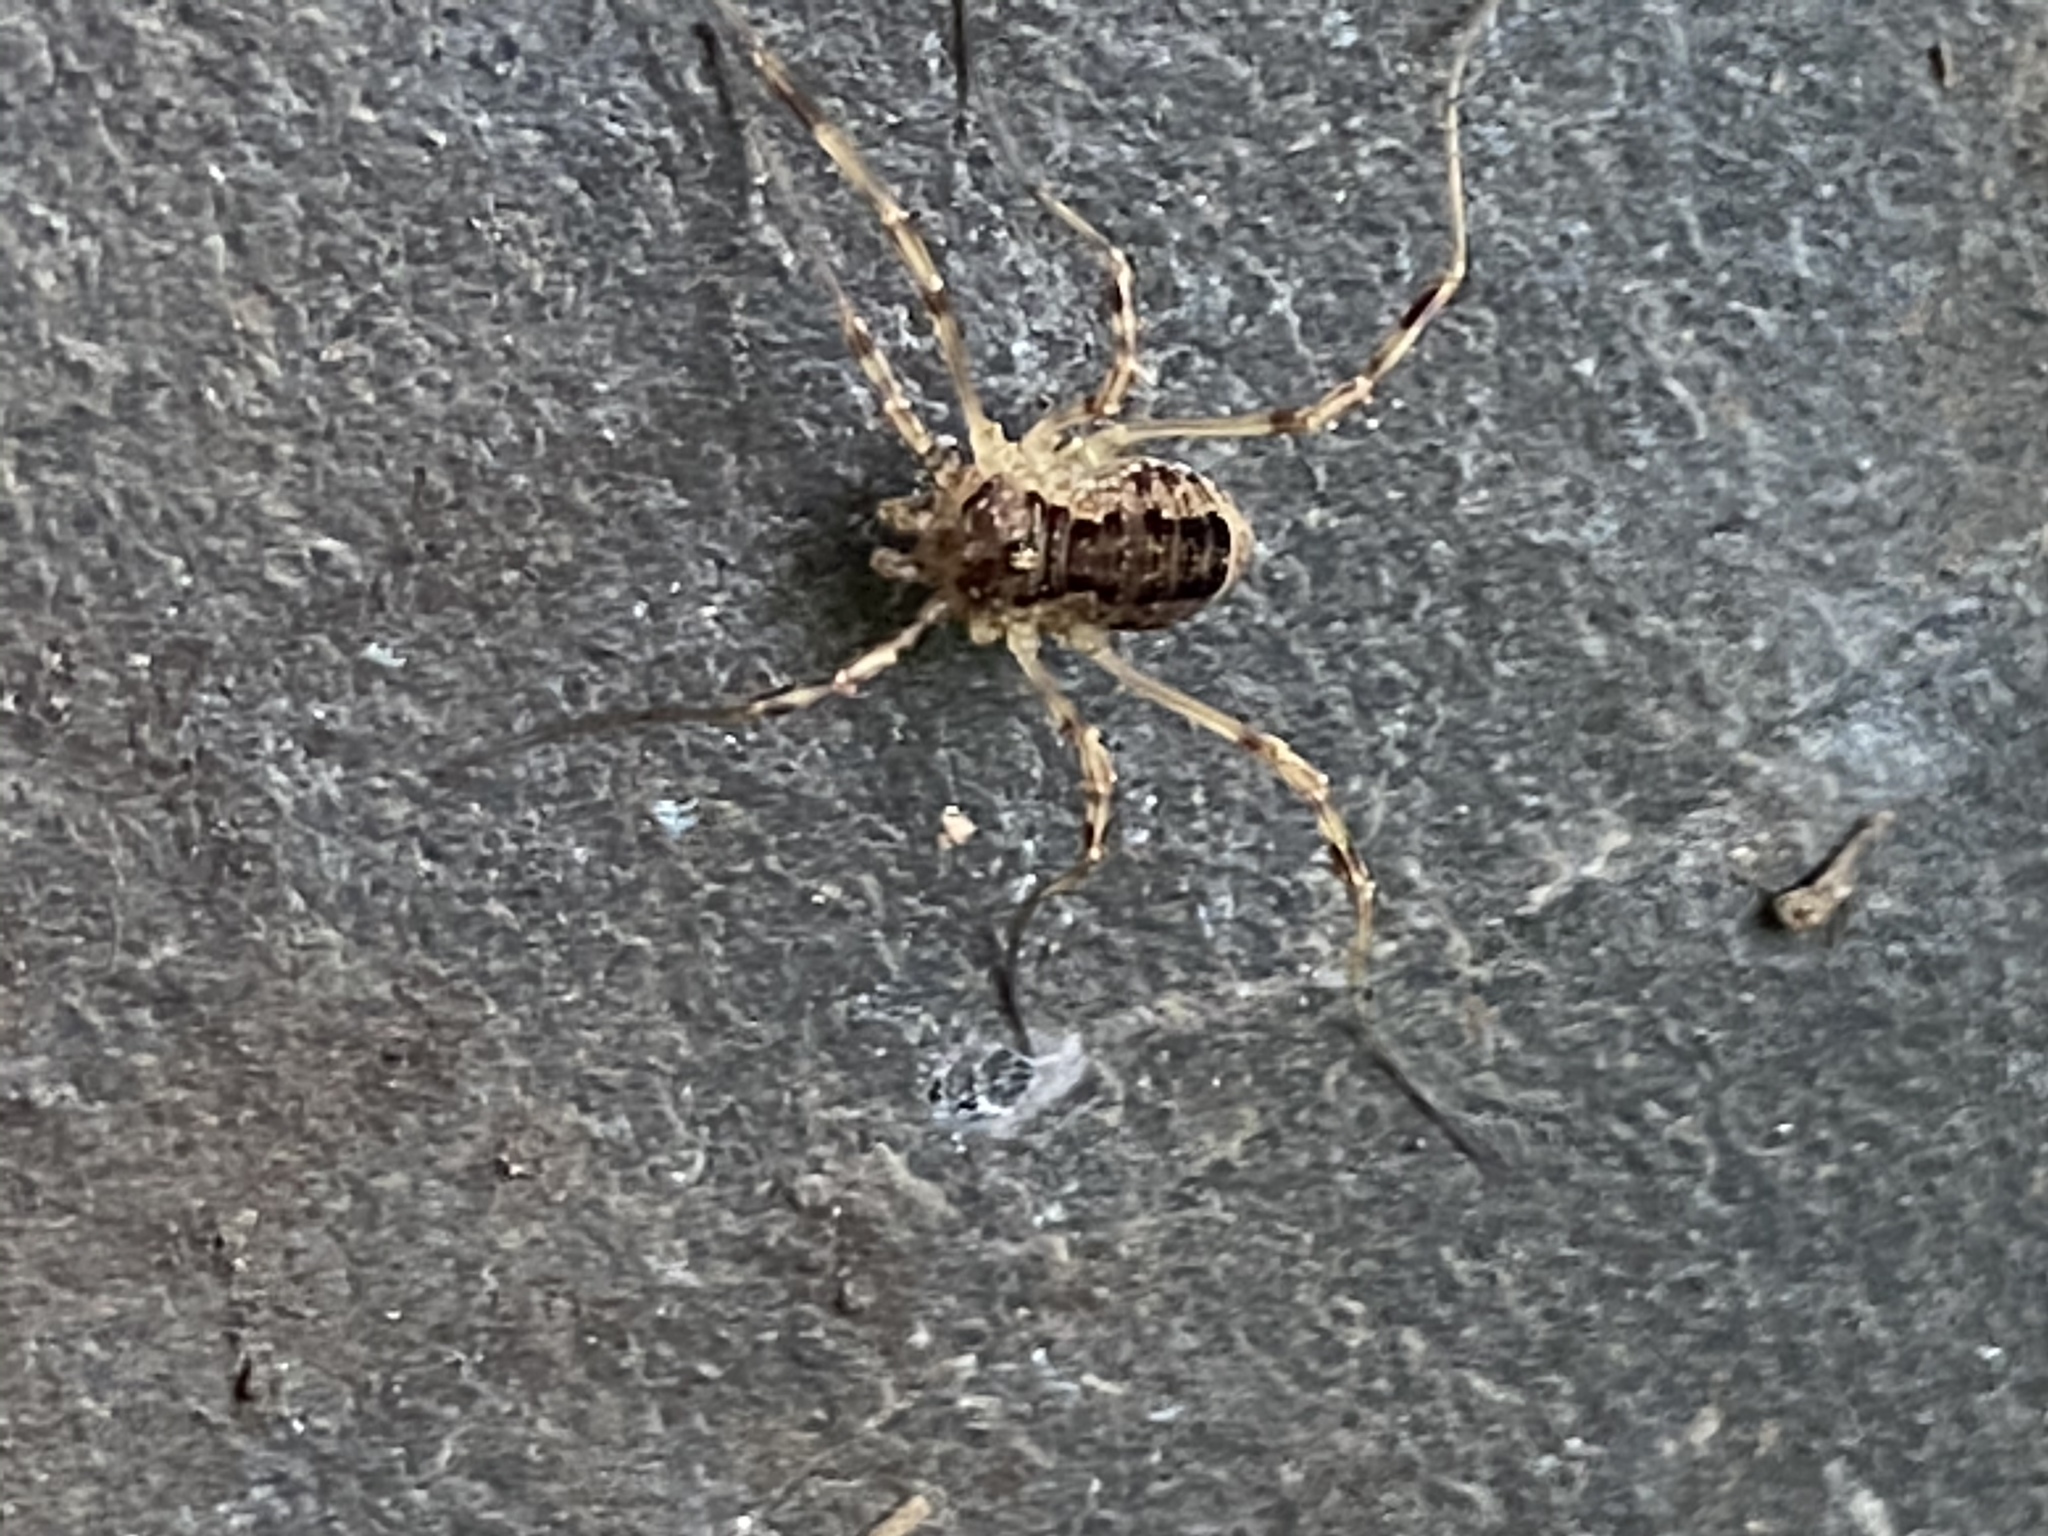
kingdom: Animalia
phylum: Arthropoda
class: Arachnida
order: Opiliones
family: Phalangiidae
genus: Oligolophus
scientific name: Oligolophus tridens
